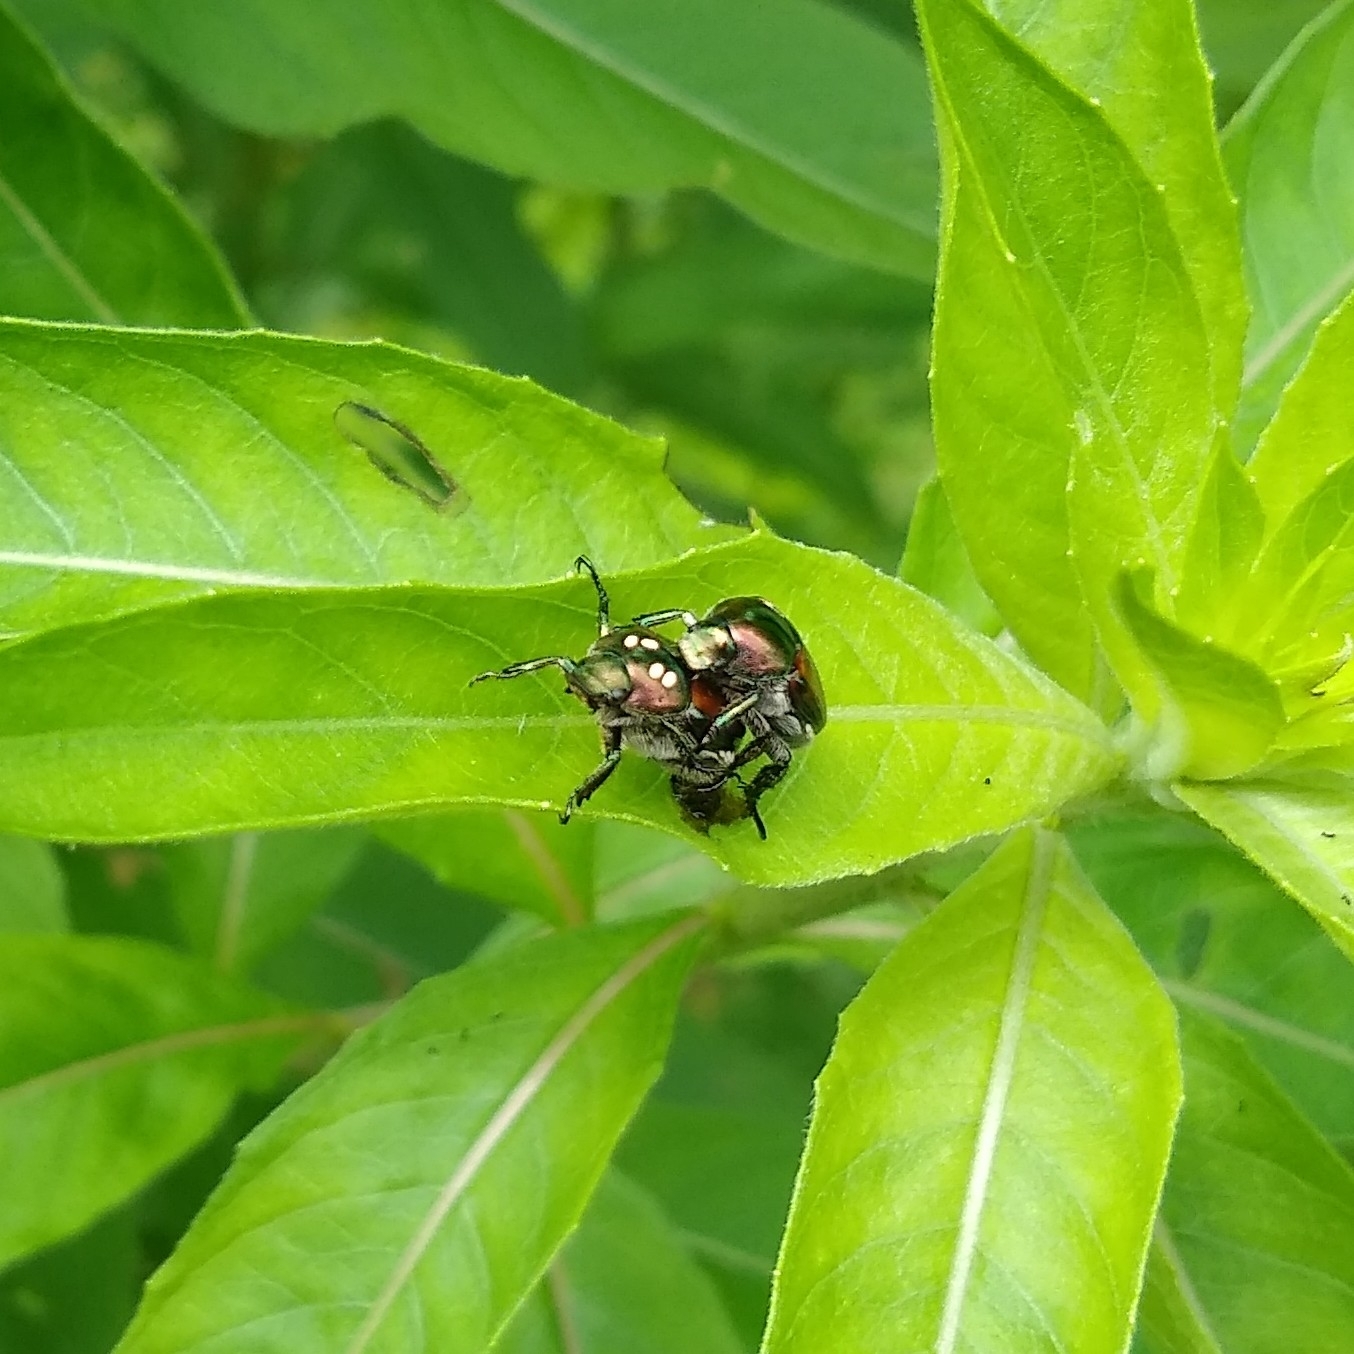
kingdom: Animalia
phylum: Arthropoda
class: Insecta
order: Diptera
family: Tachinidae
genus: Istocheta
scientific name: Istocheta aldrichi
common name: Parasitic wasp
